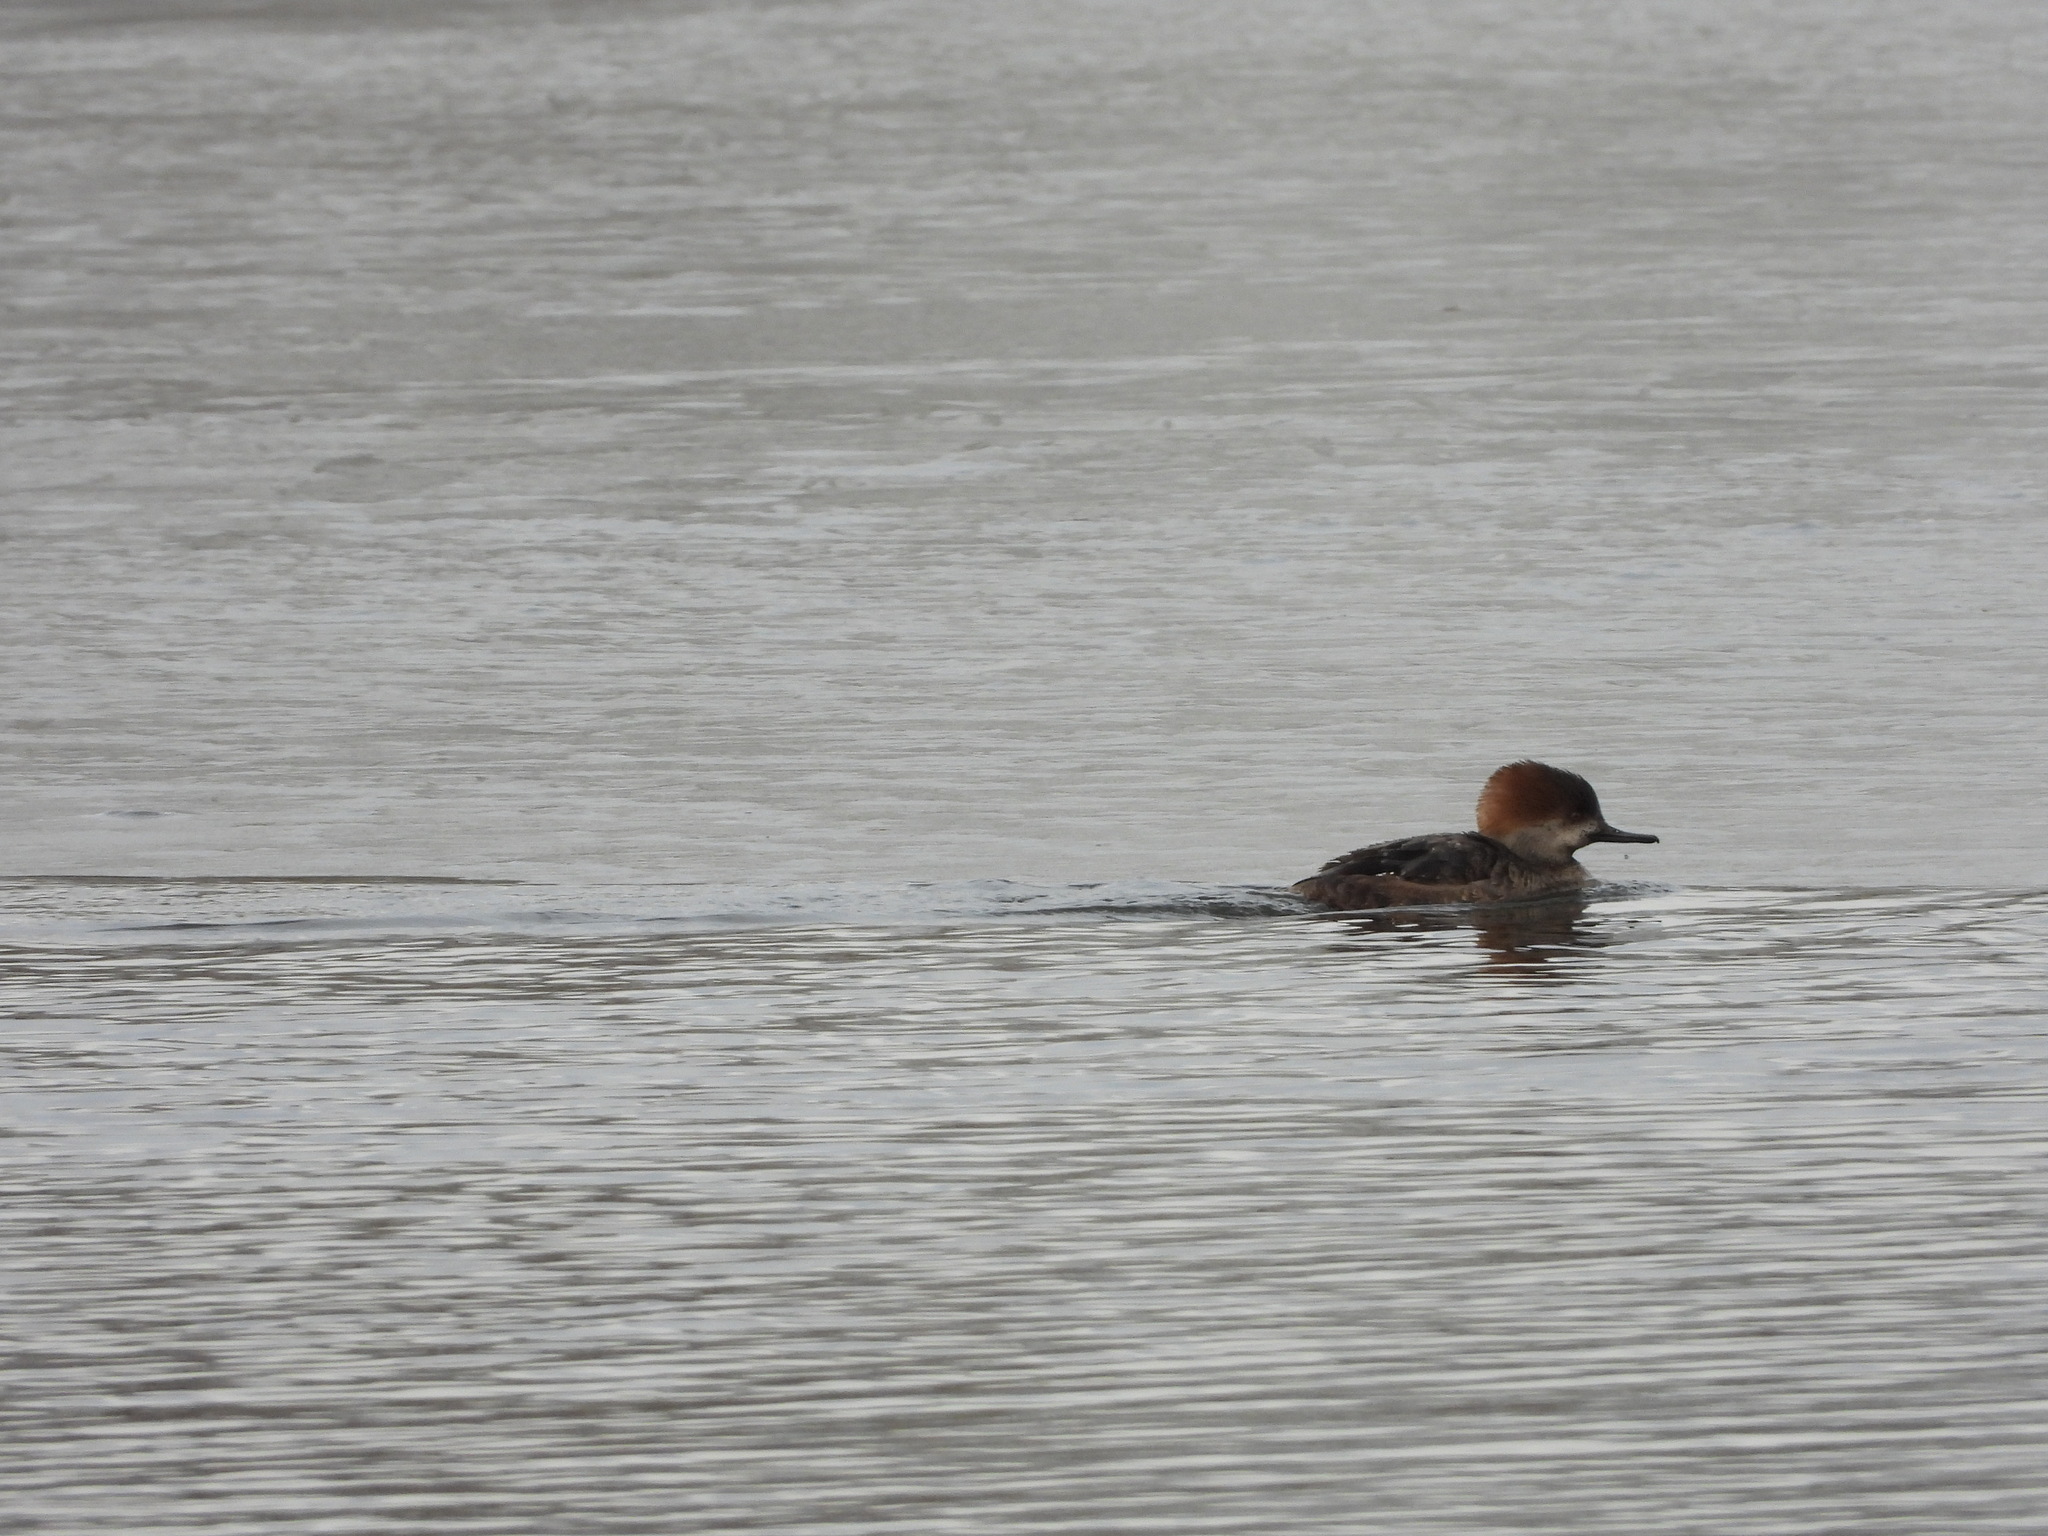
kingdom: Animalia
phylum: Chordata
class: Aves
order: Anseriformes
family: Anatidae
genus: Lophodytes
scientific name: Lophodytes cucullatus
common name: Hooded merganser
